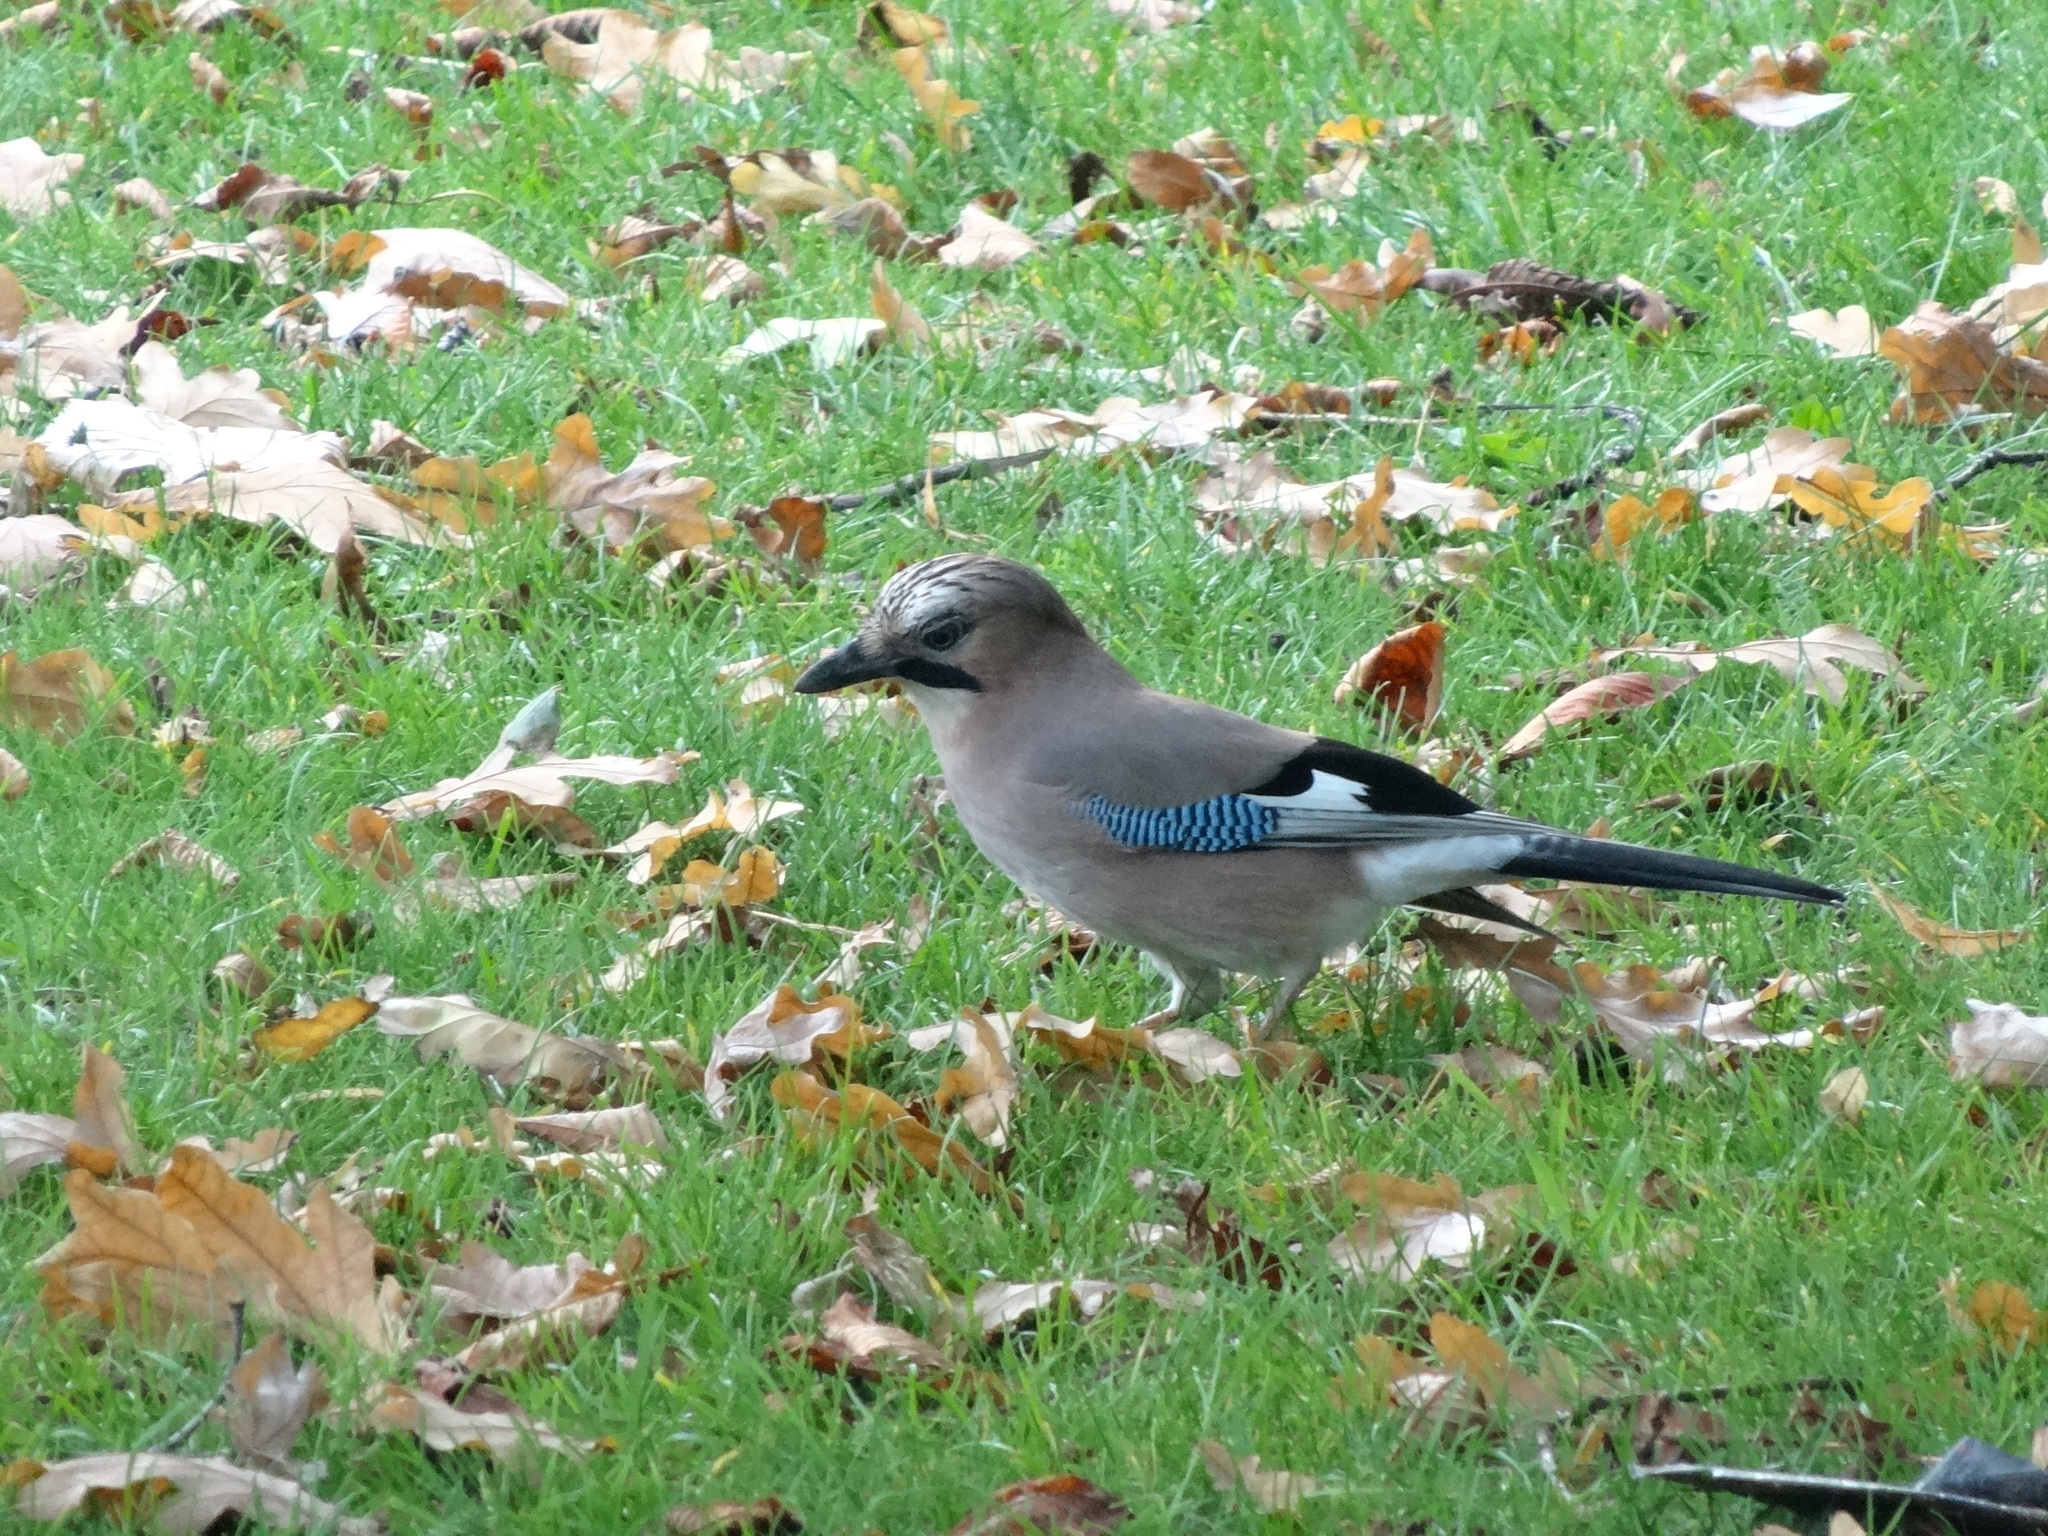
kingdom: Animalia
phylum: Chordata
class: Aves
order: Passeriformes
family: Corvidae
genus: Garrulus
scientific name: Garrulus glandarius
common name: Eurasian jay
